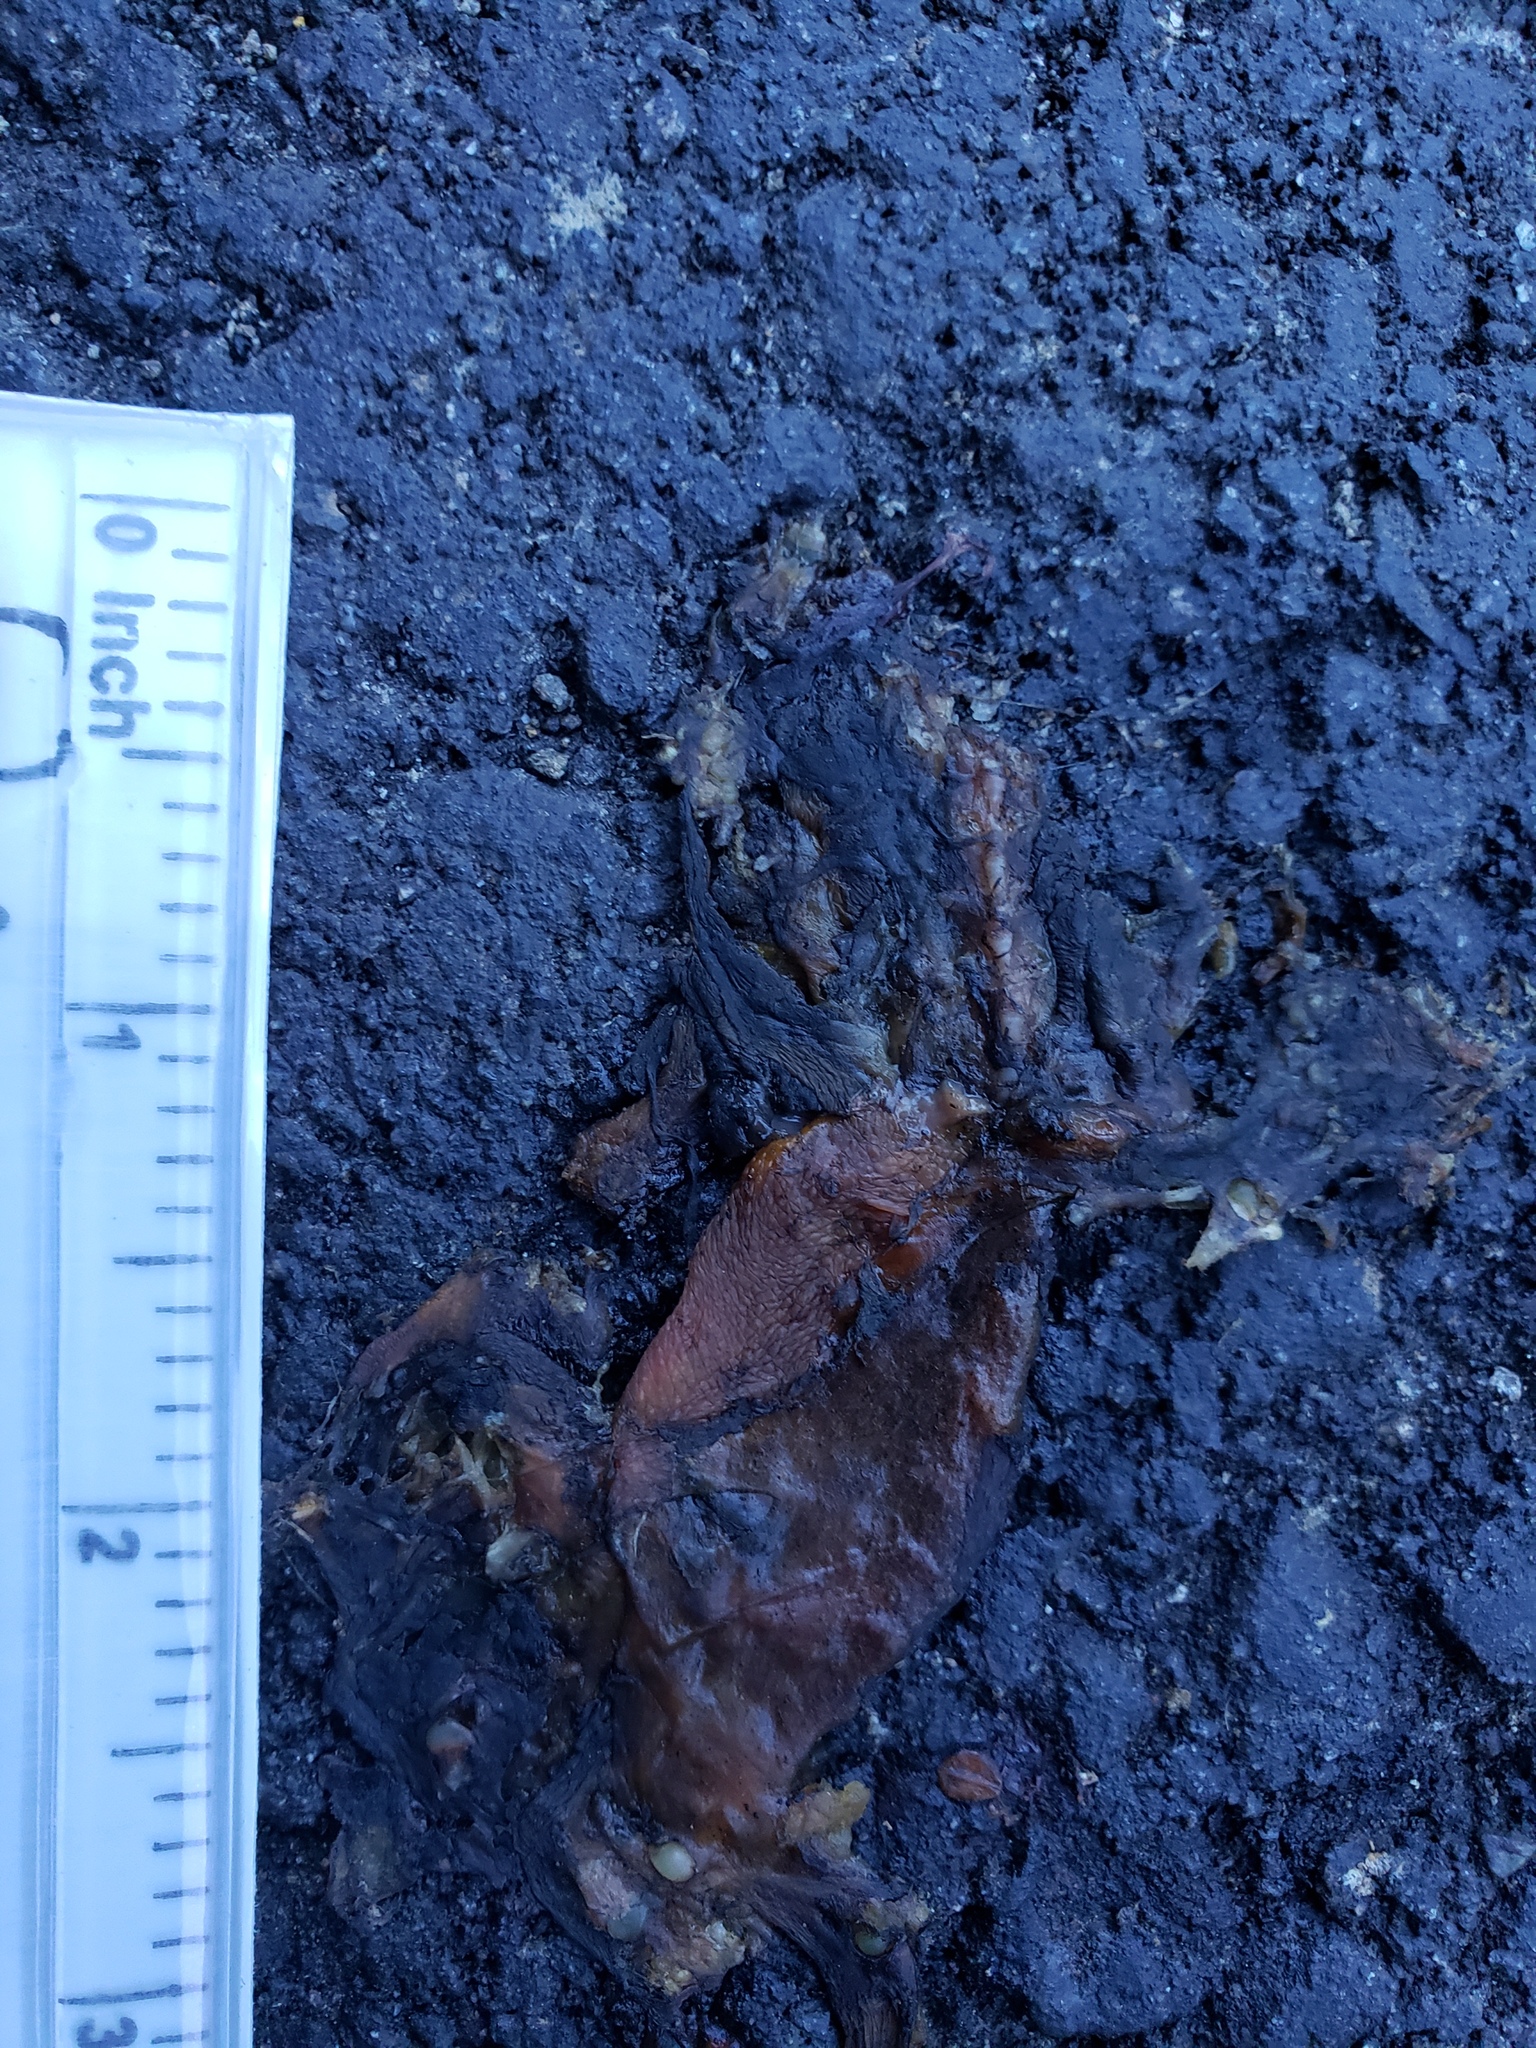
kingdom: Animalia
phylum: Chordata
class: Amphibia
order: Caudata
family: Salamandridae
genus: Taricha
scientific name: Taricha
